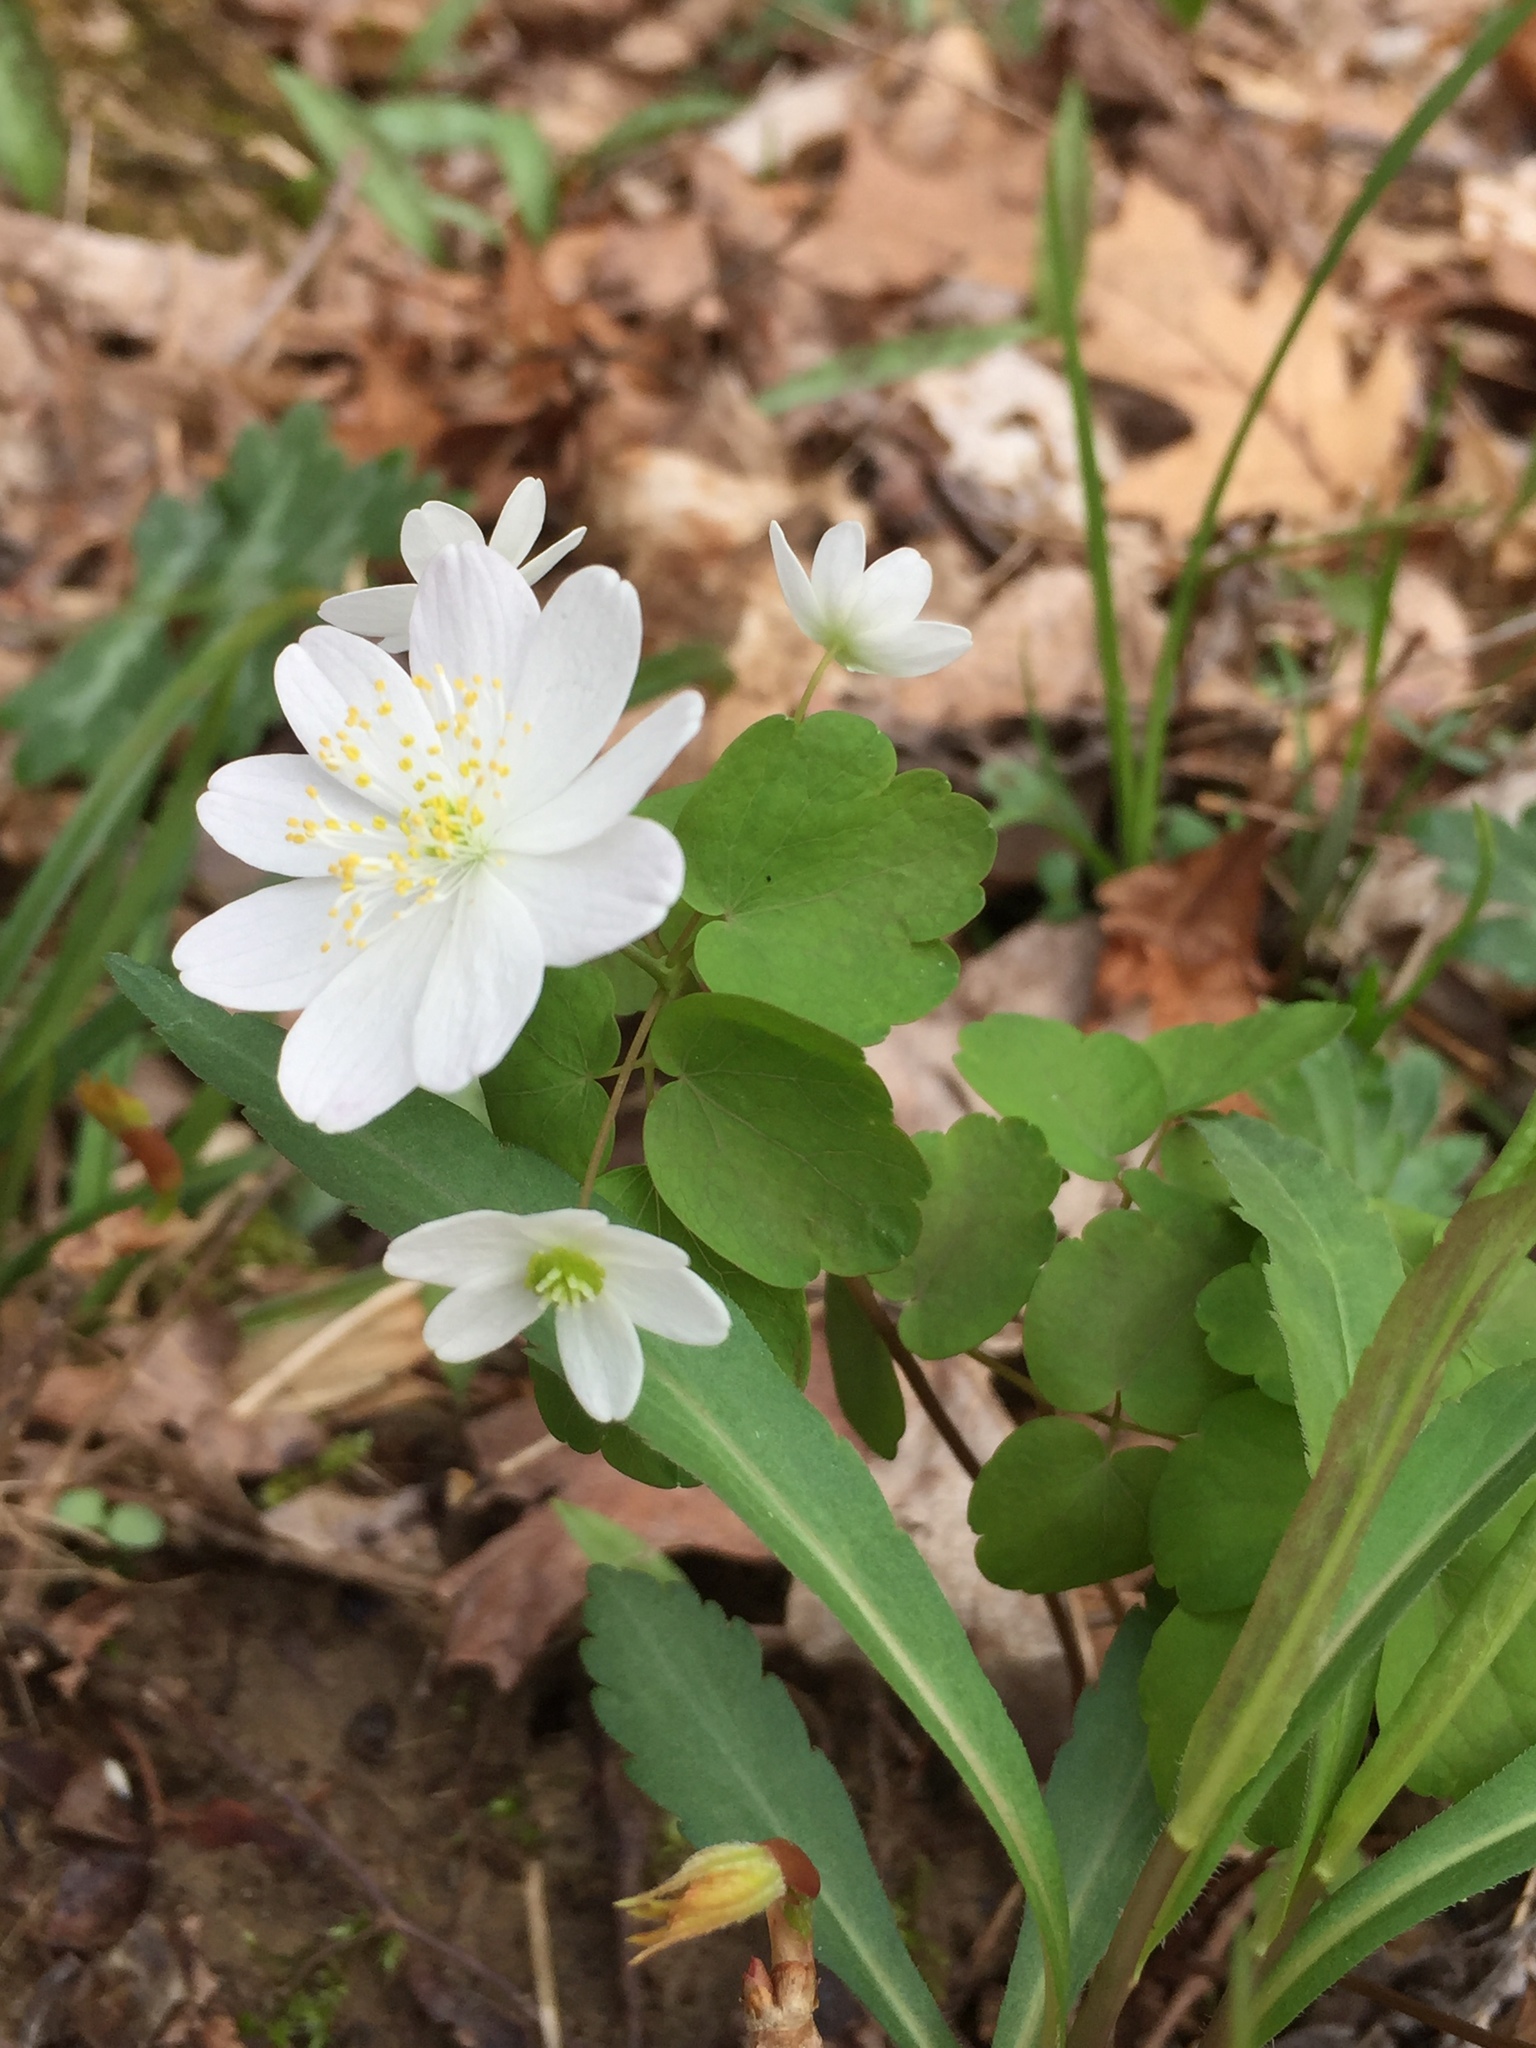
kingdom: Plantae
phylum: Tracheophyta
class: Magnoliopsida
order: Ranunculales
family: Ranunculaceae
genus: Thalictrum
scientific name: Thalictrum thalictroides
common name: Rue-anemone
